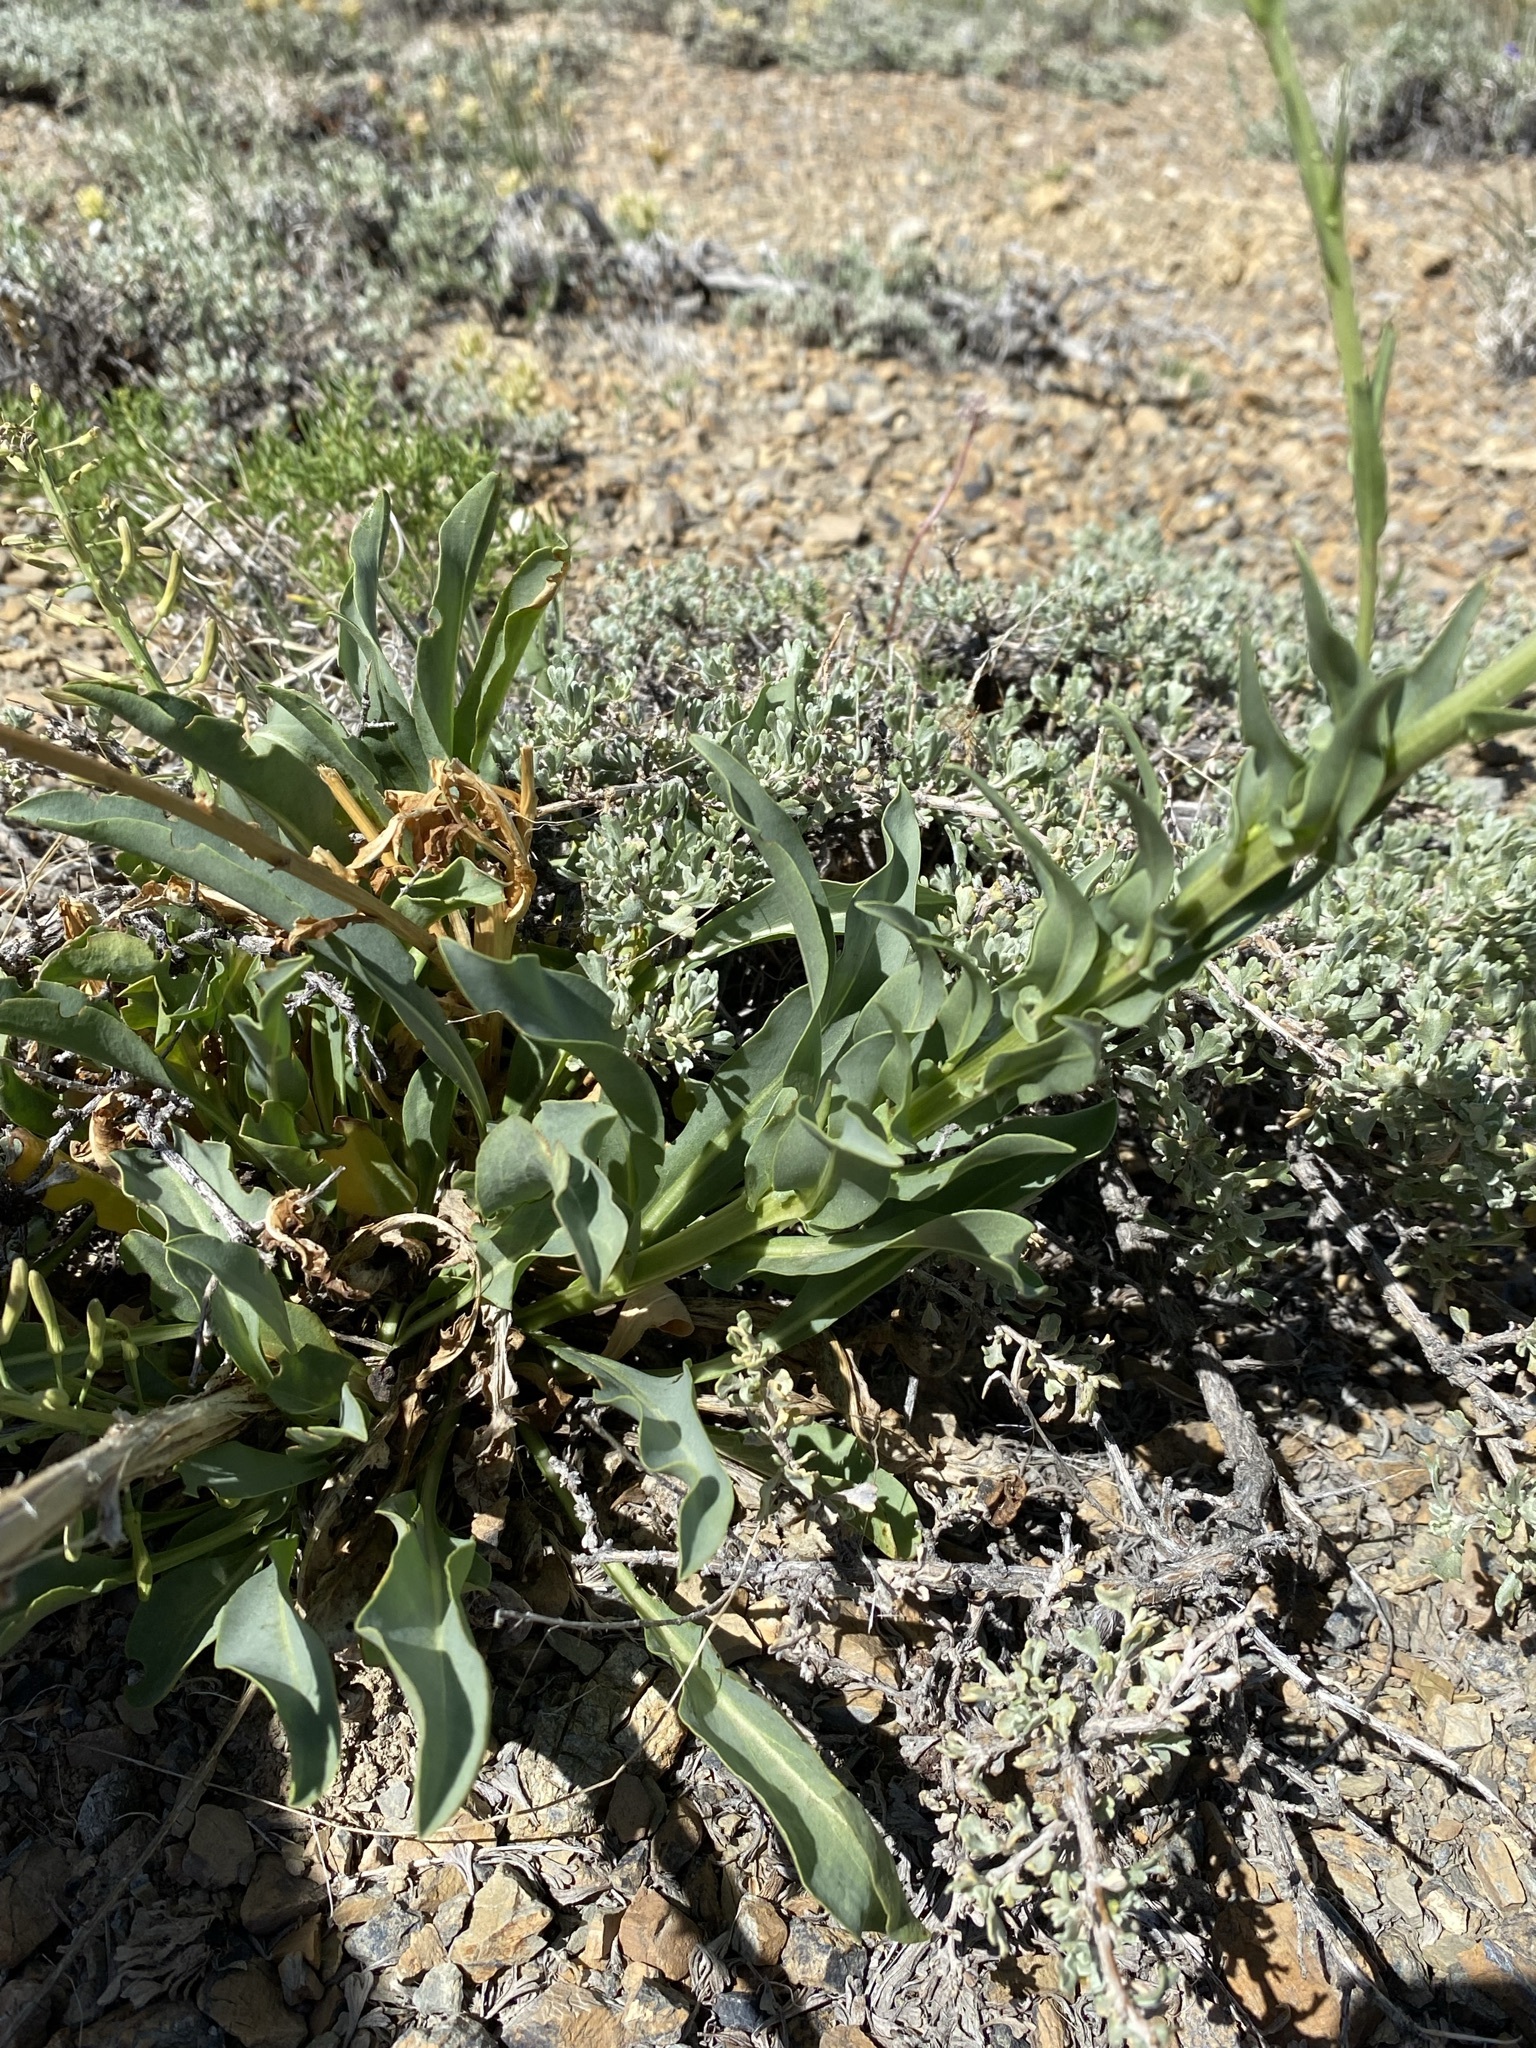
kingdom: Plantae
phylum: Tracheophyta
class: Magnoliopsida
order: Brassicales
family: Brassicaceae
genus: Stanleya
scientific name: Stanleya viridiflora
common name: Desert plume
